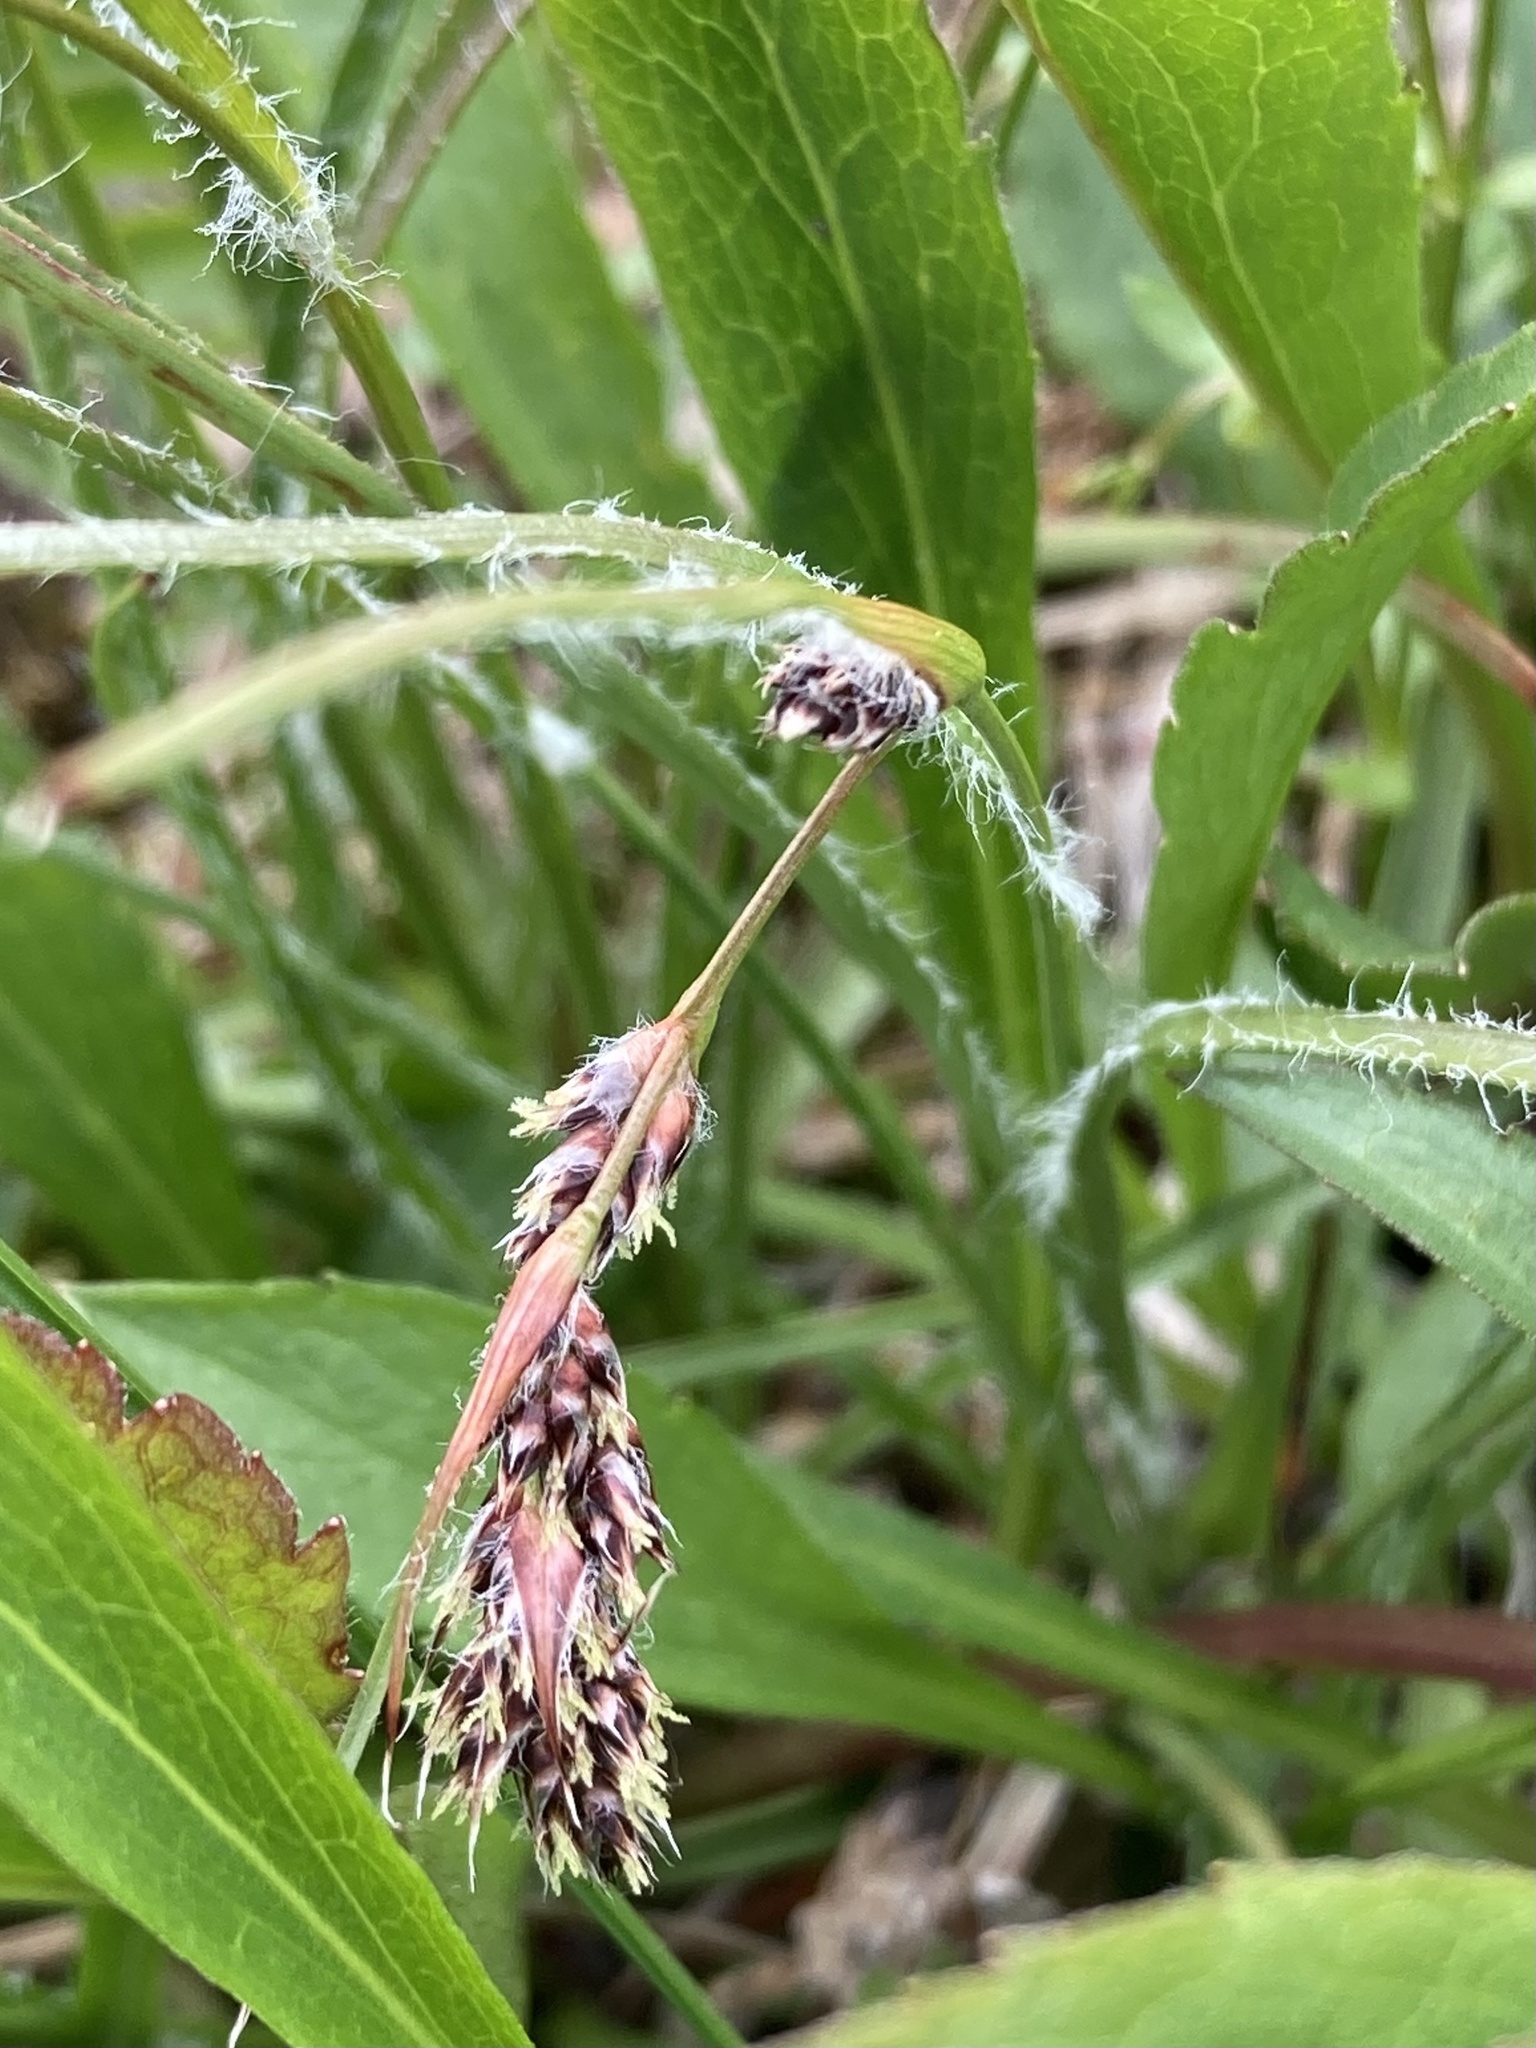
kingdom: Plantae
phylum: Tracheophyta
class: Liliopsida
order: Poales
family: Juncaceae
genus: Luzula
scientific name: Luzula spicata
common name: Spiked wood-rush
